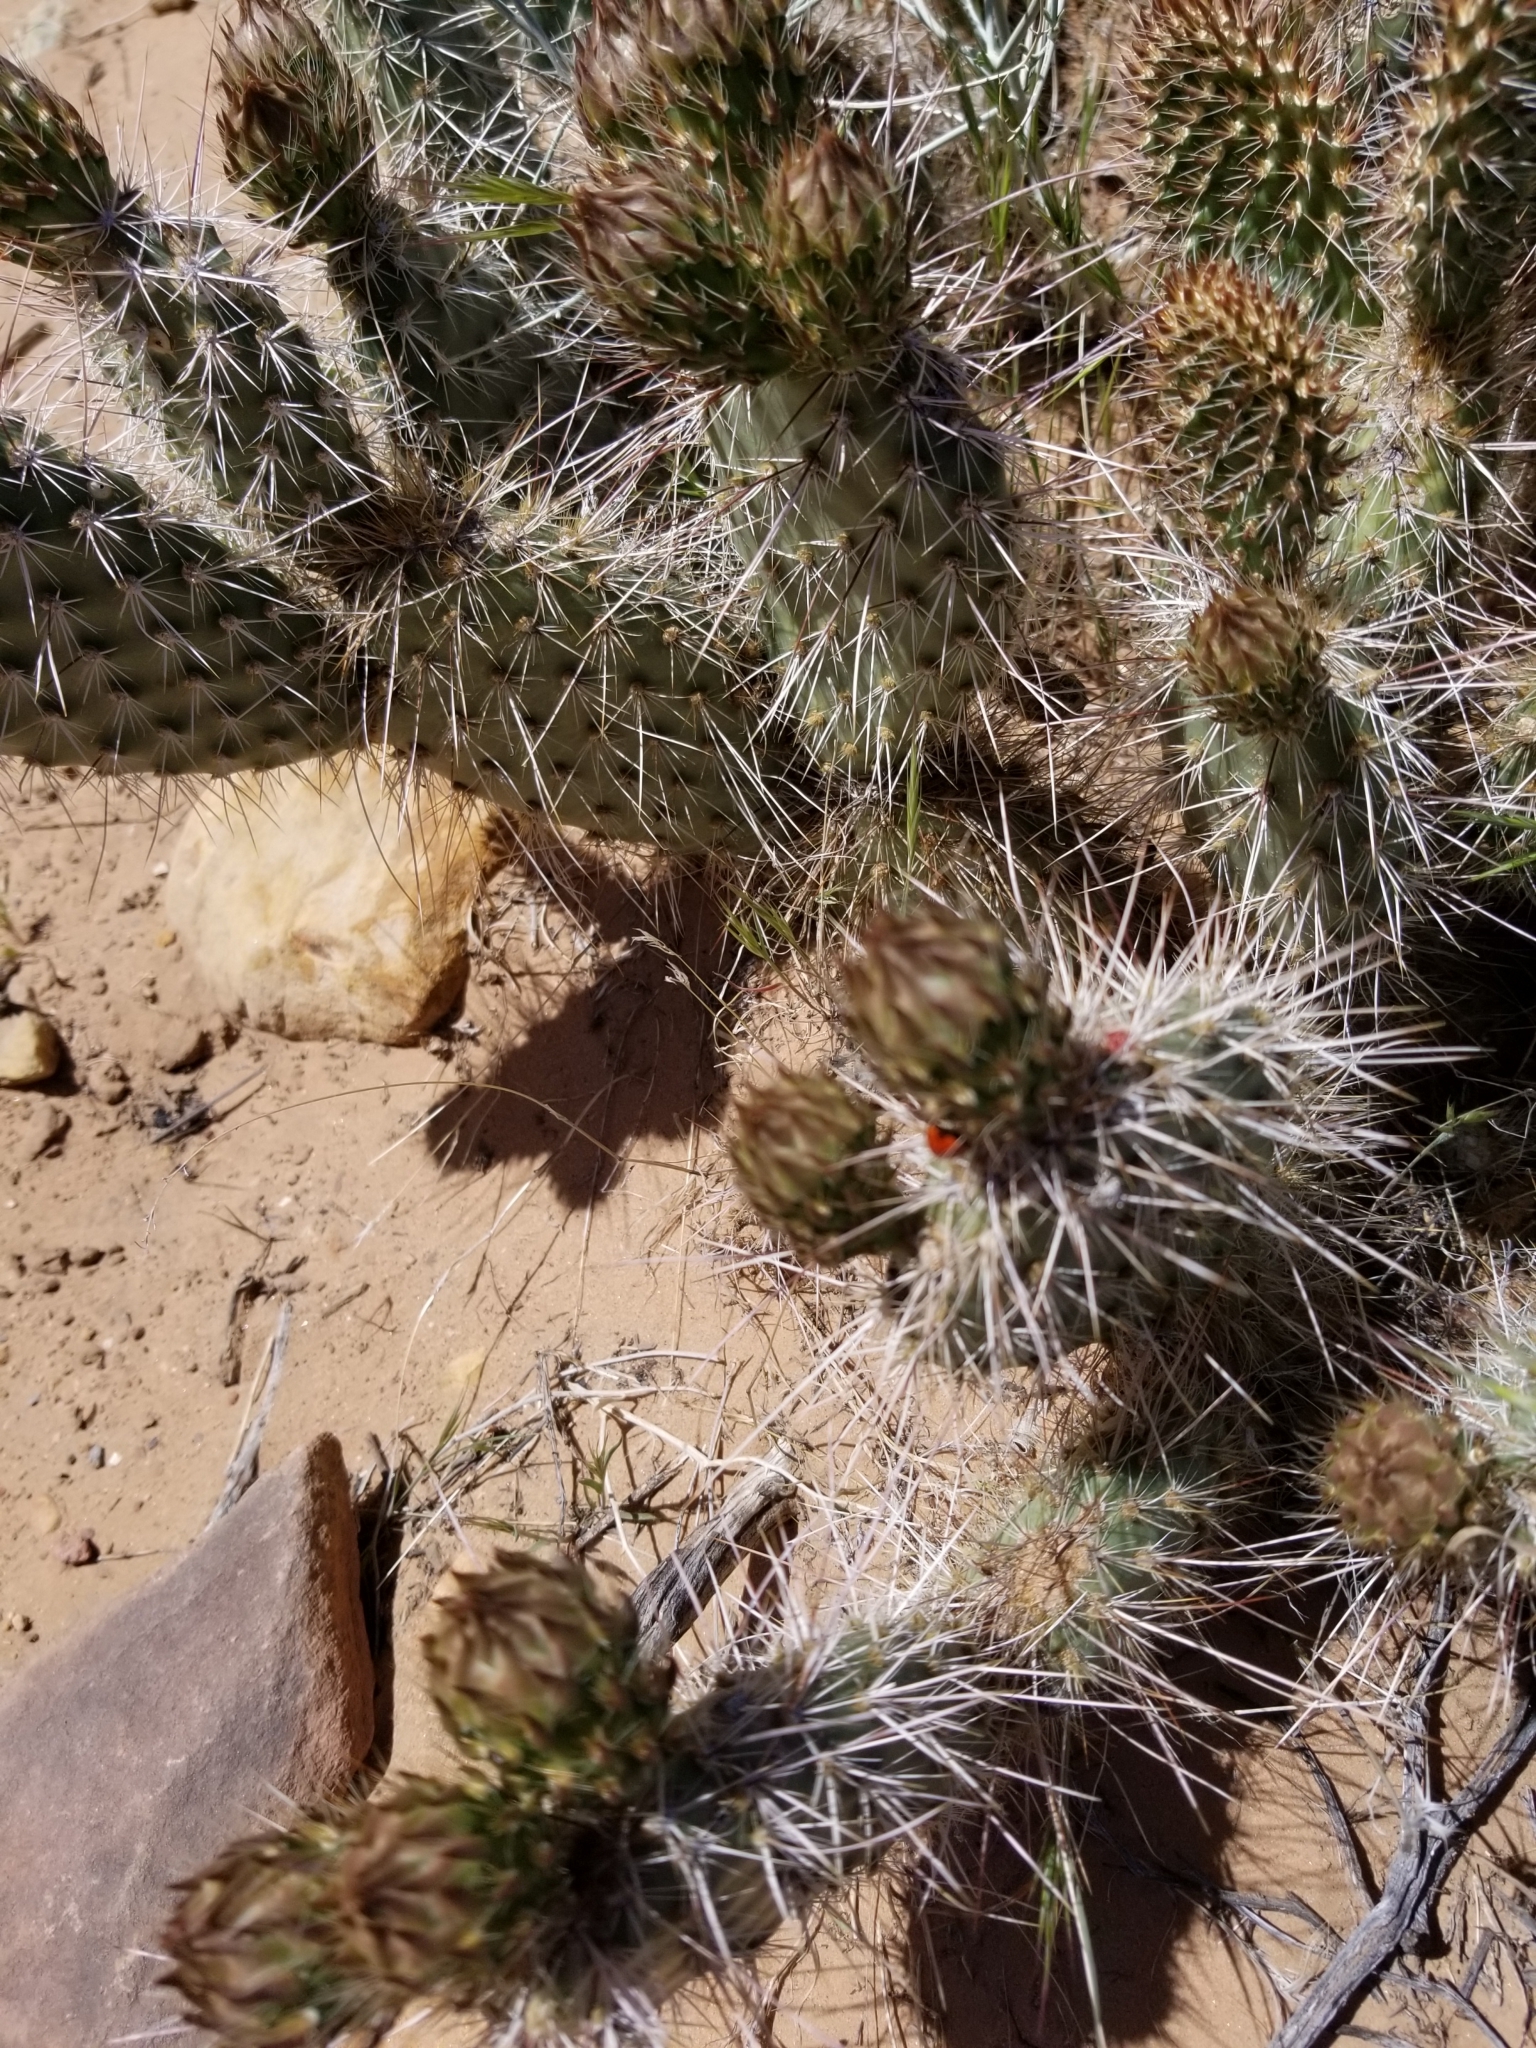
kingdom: Plantae
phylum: Tracheophyta
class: Magnoliopsida
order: Caryophyllales
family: Cactaceae
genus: Opuntia
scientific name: Opuntia polyacantha
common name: Plains prickly-pear
